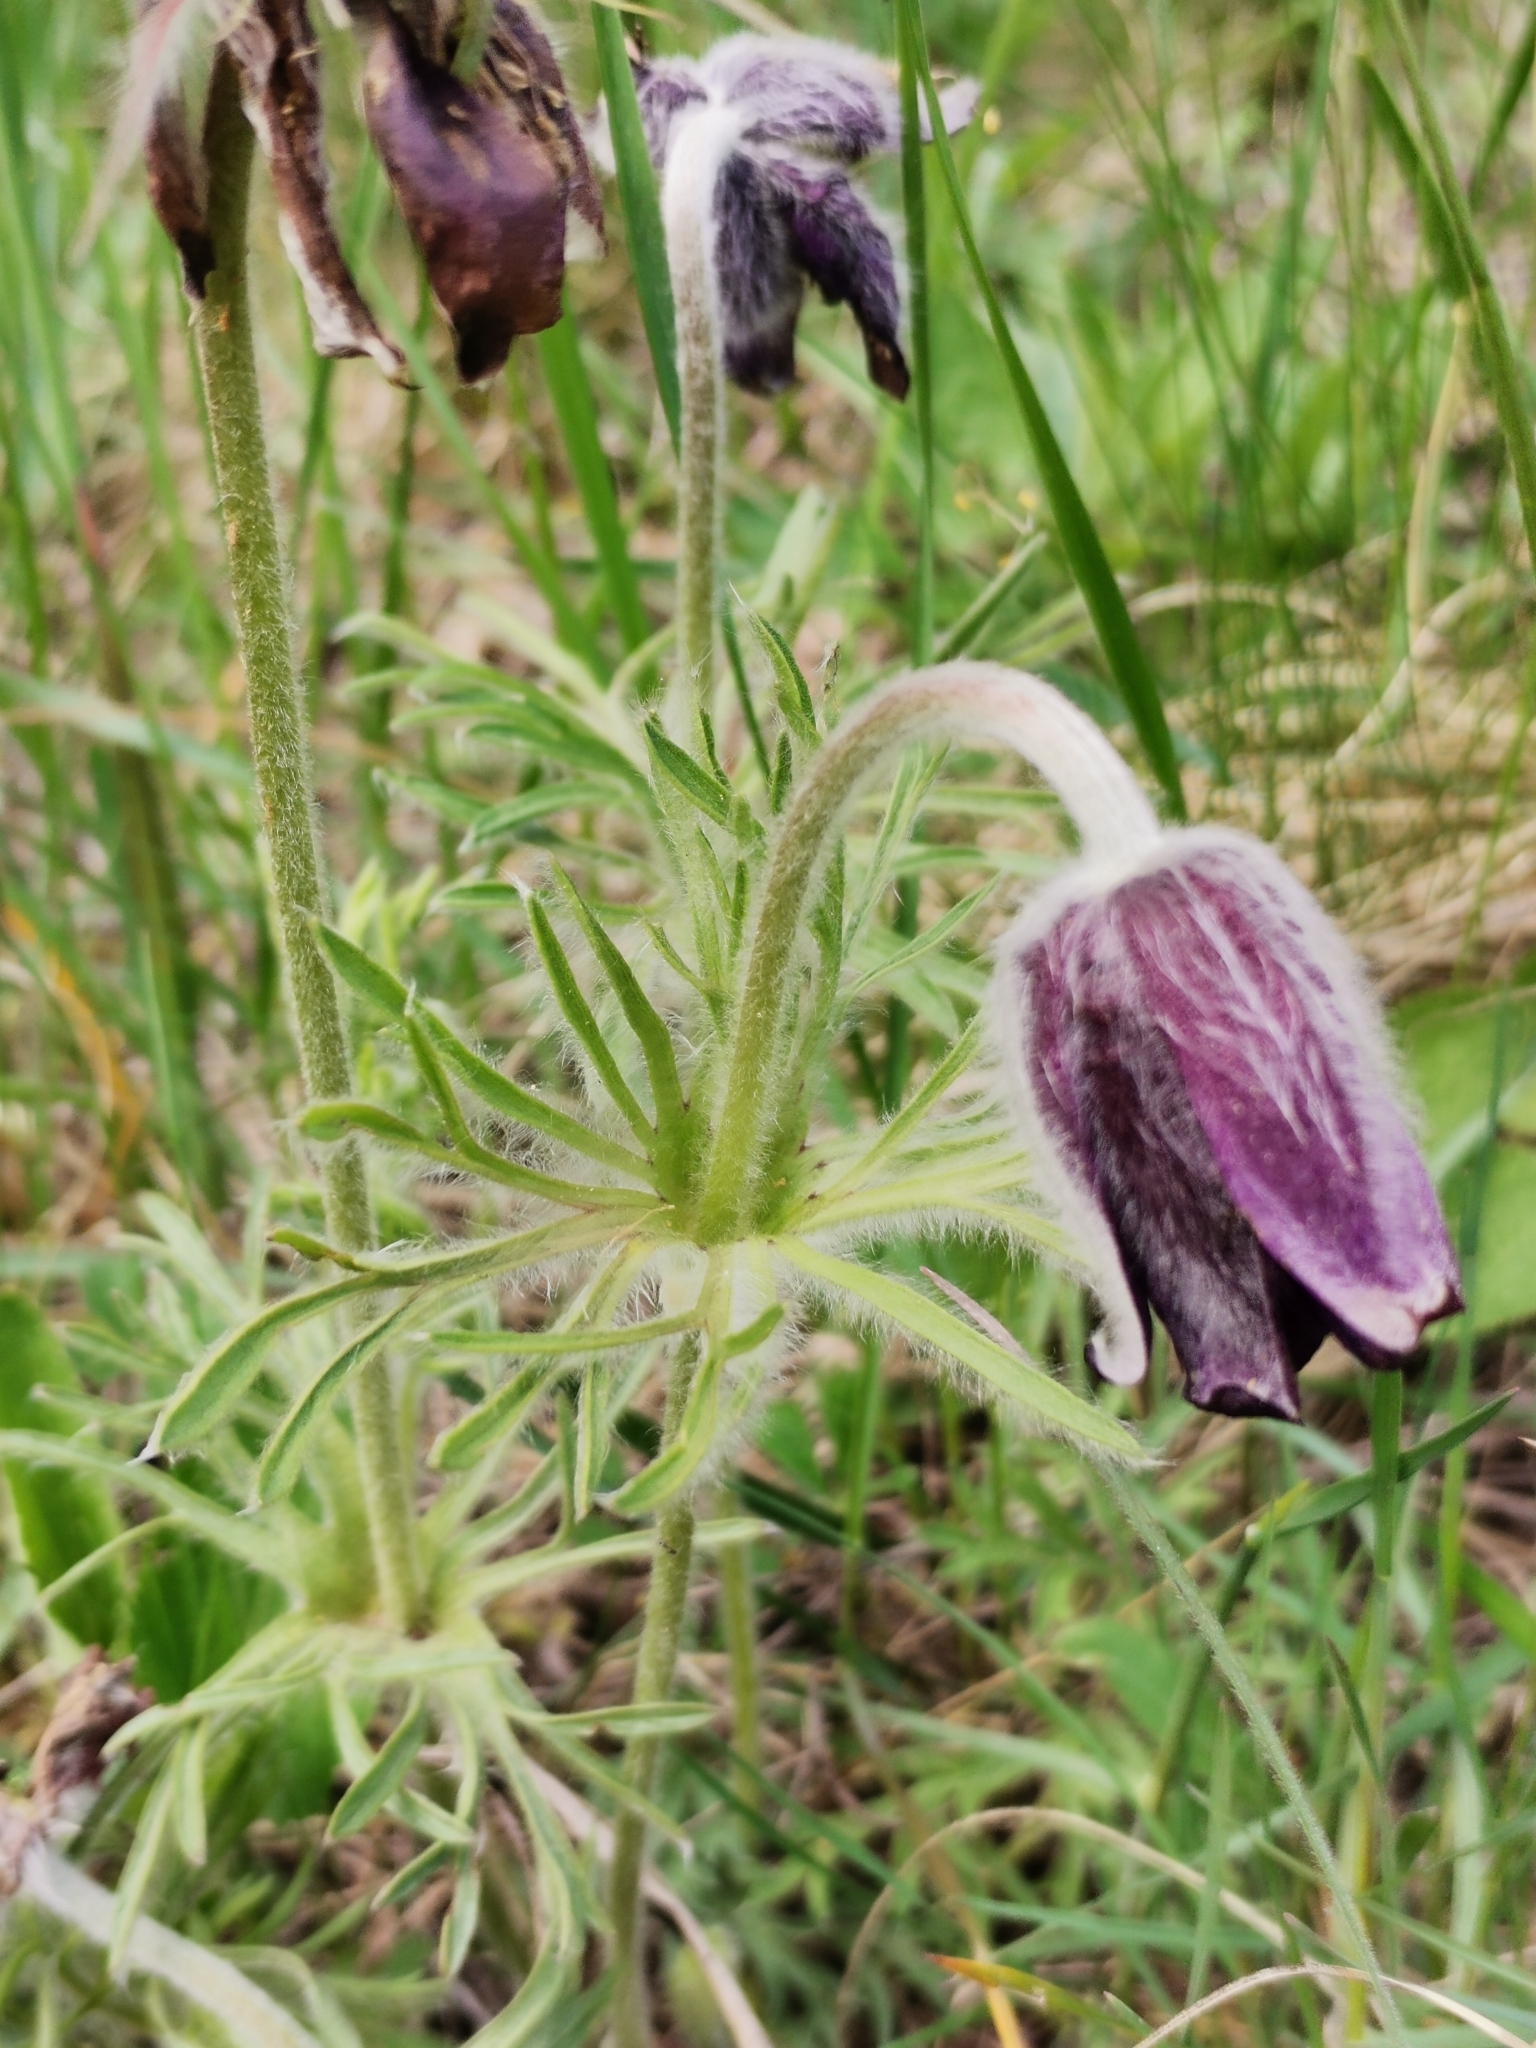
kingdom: Plantae
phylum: Tracheophyta
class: Magnoliopsida
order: Ranunculales
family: Ranunculaceae
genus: Pulsatilla
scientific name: Pulsatilla pratensis
